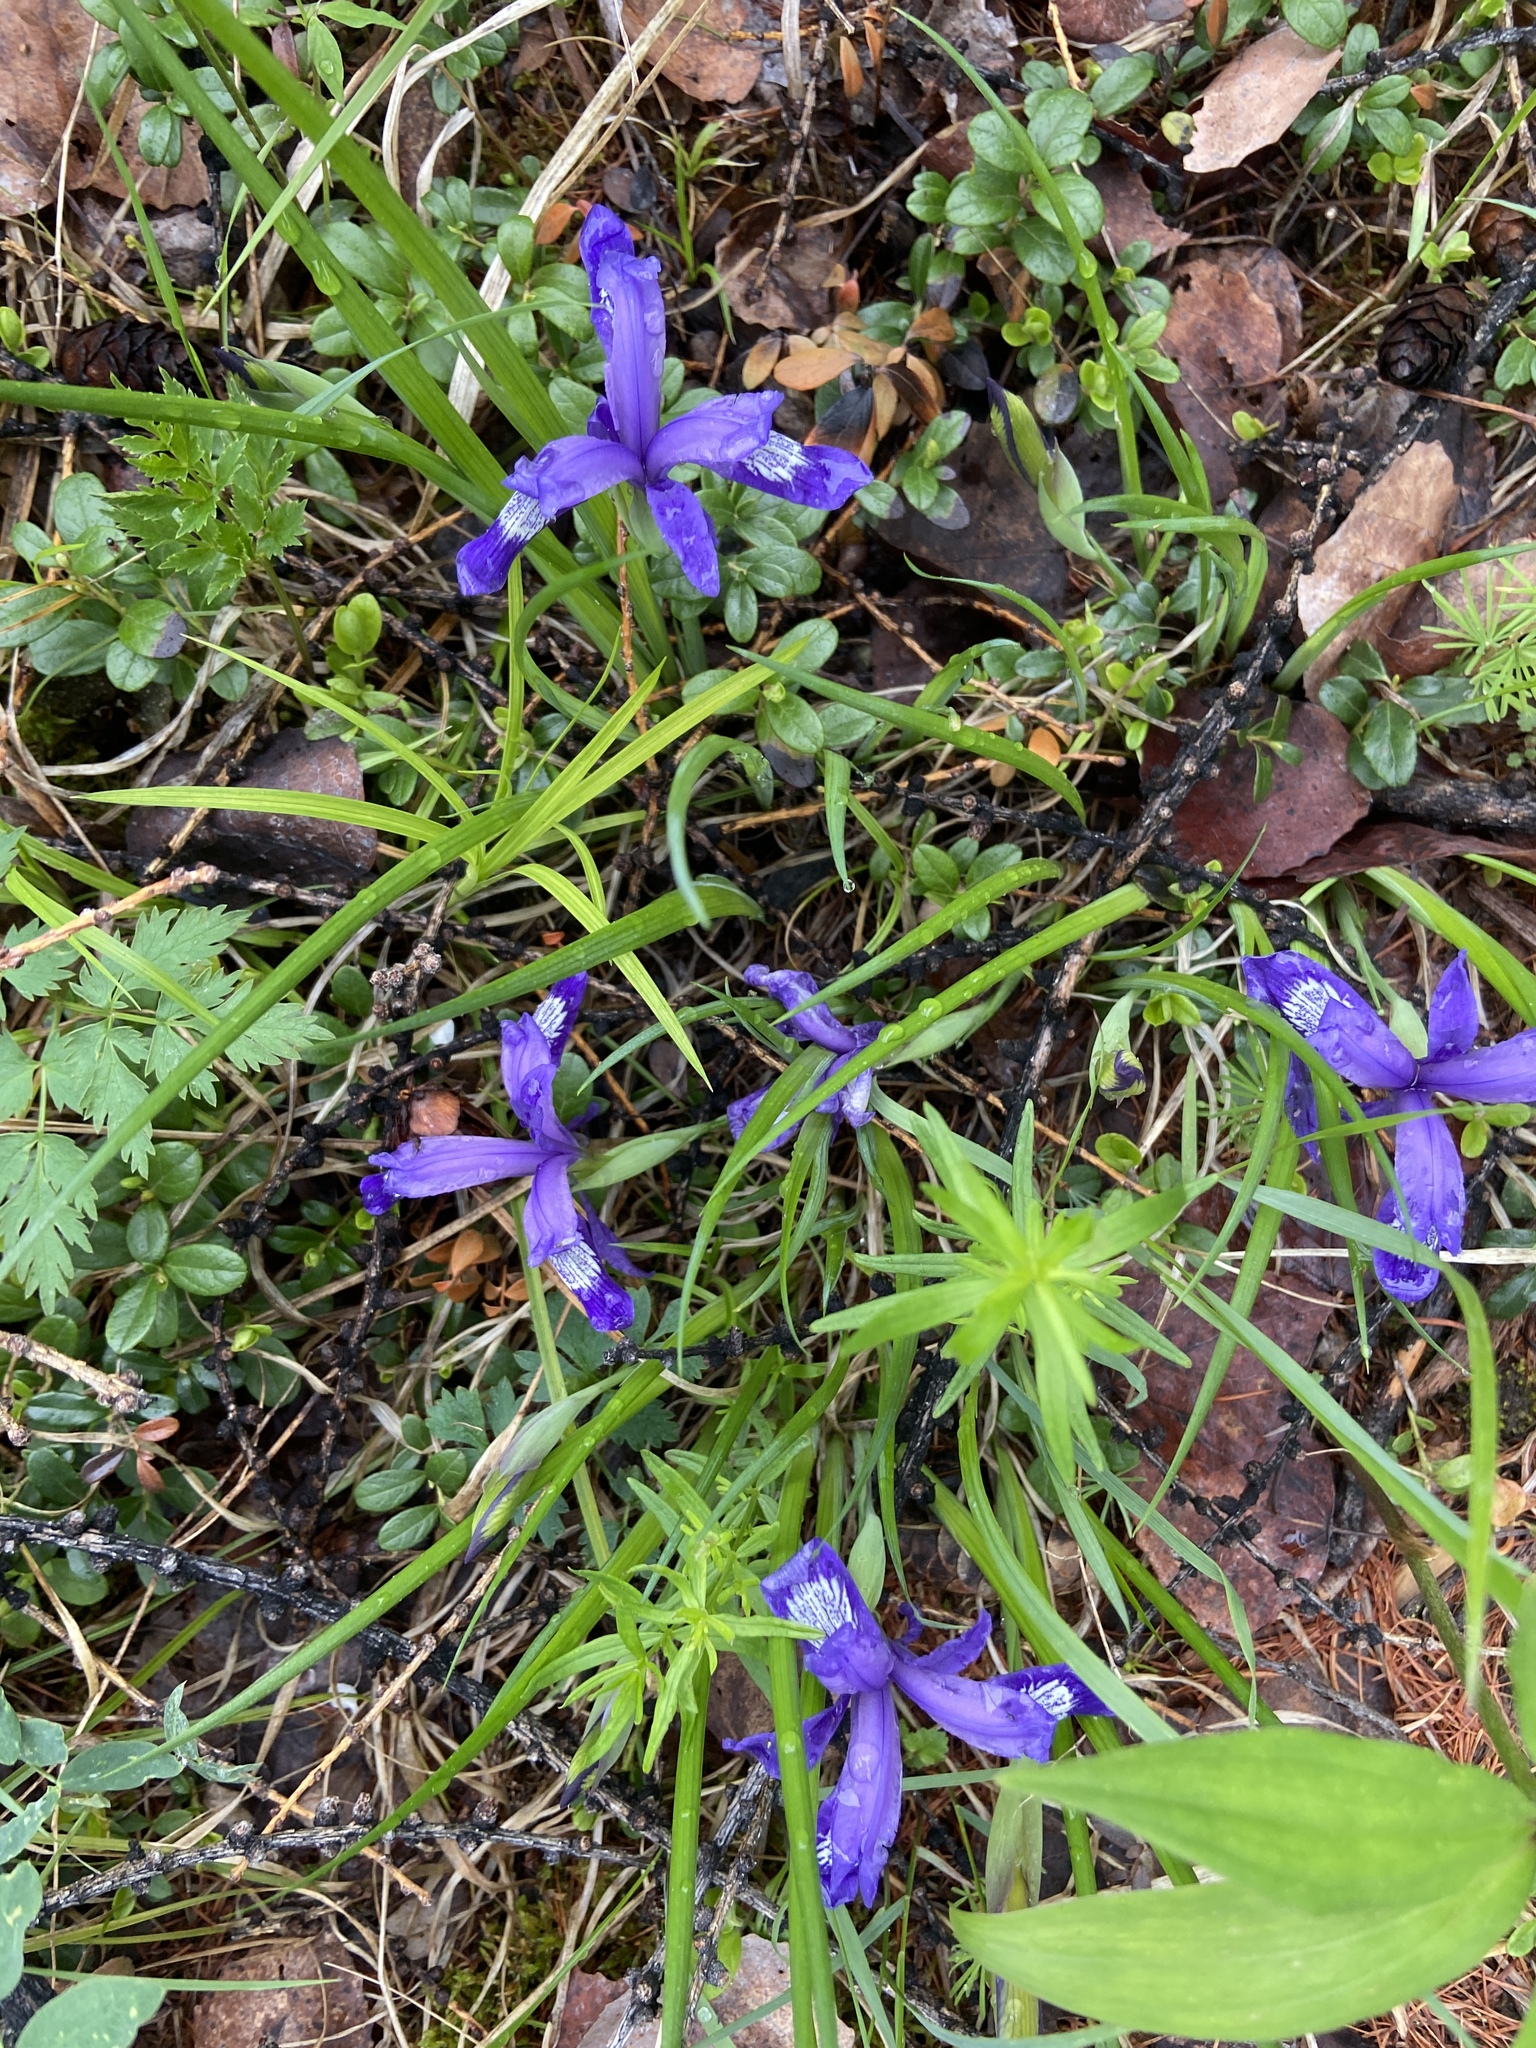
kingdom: Plantae
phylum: Tracheophyta
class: Liliopsida
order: Asparagales
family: Iridaceae
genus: Iris
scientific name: Iris ruthenica
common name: Purple-bract iris
